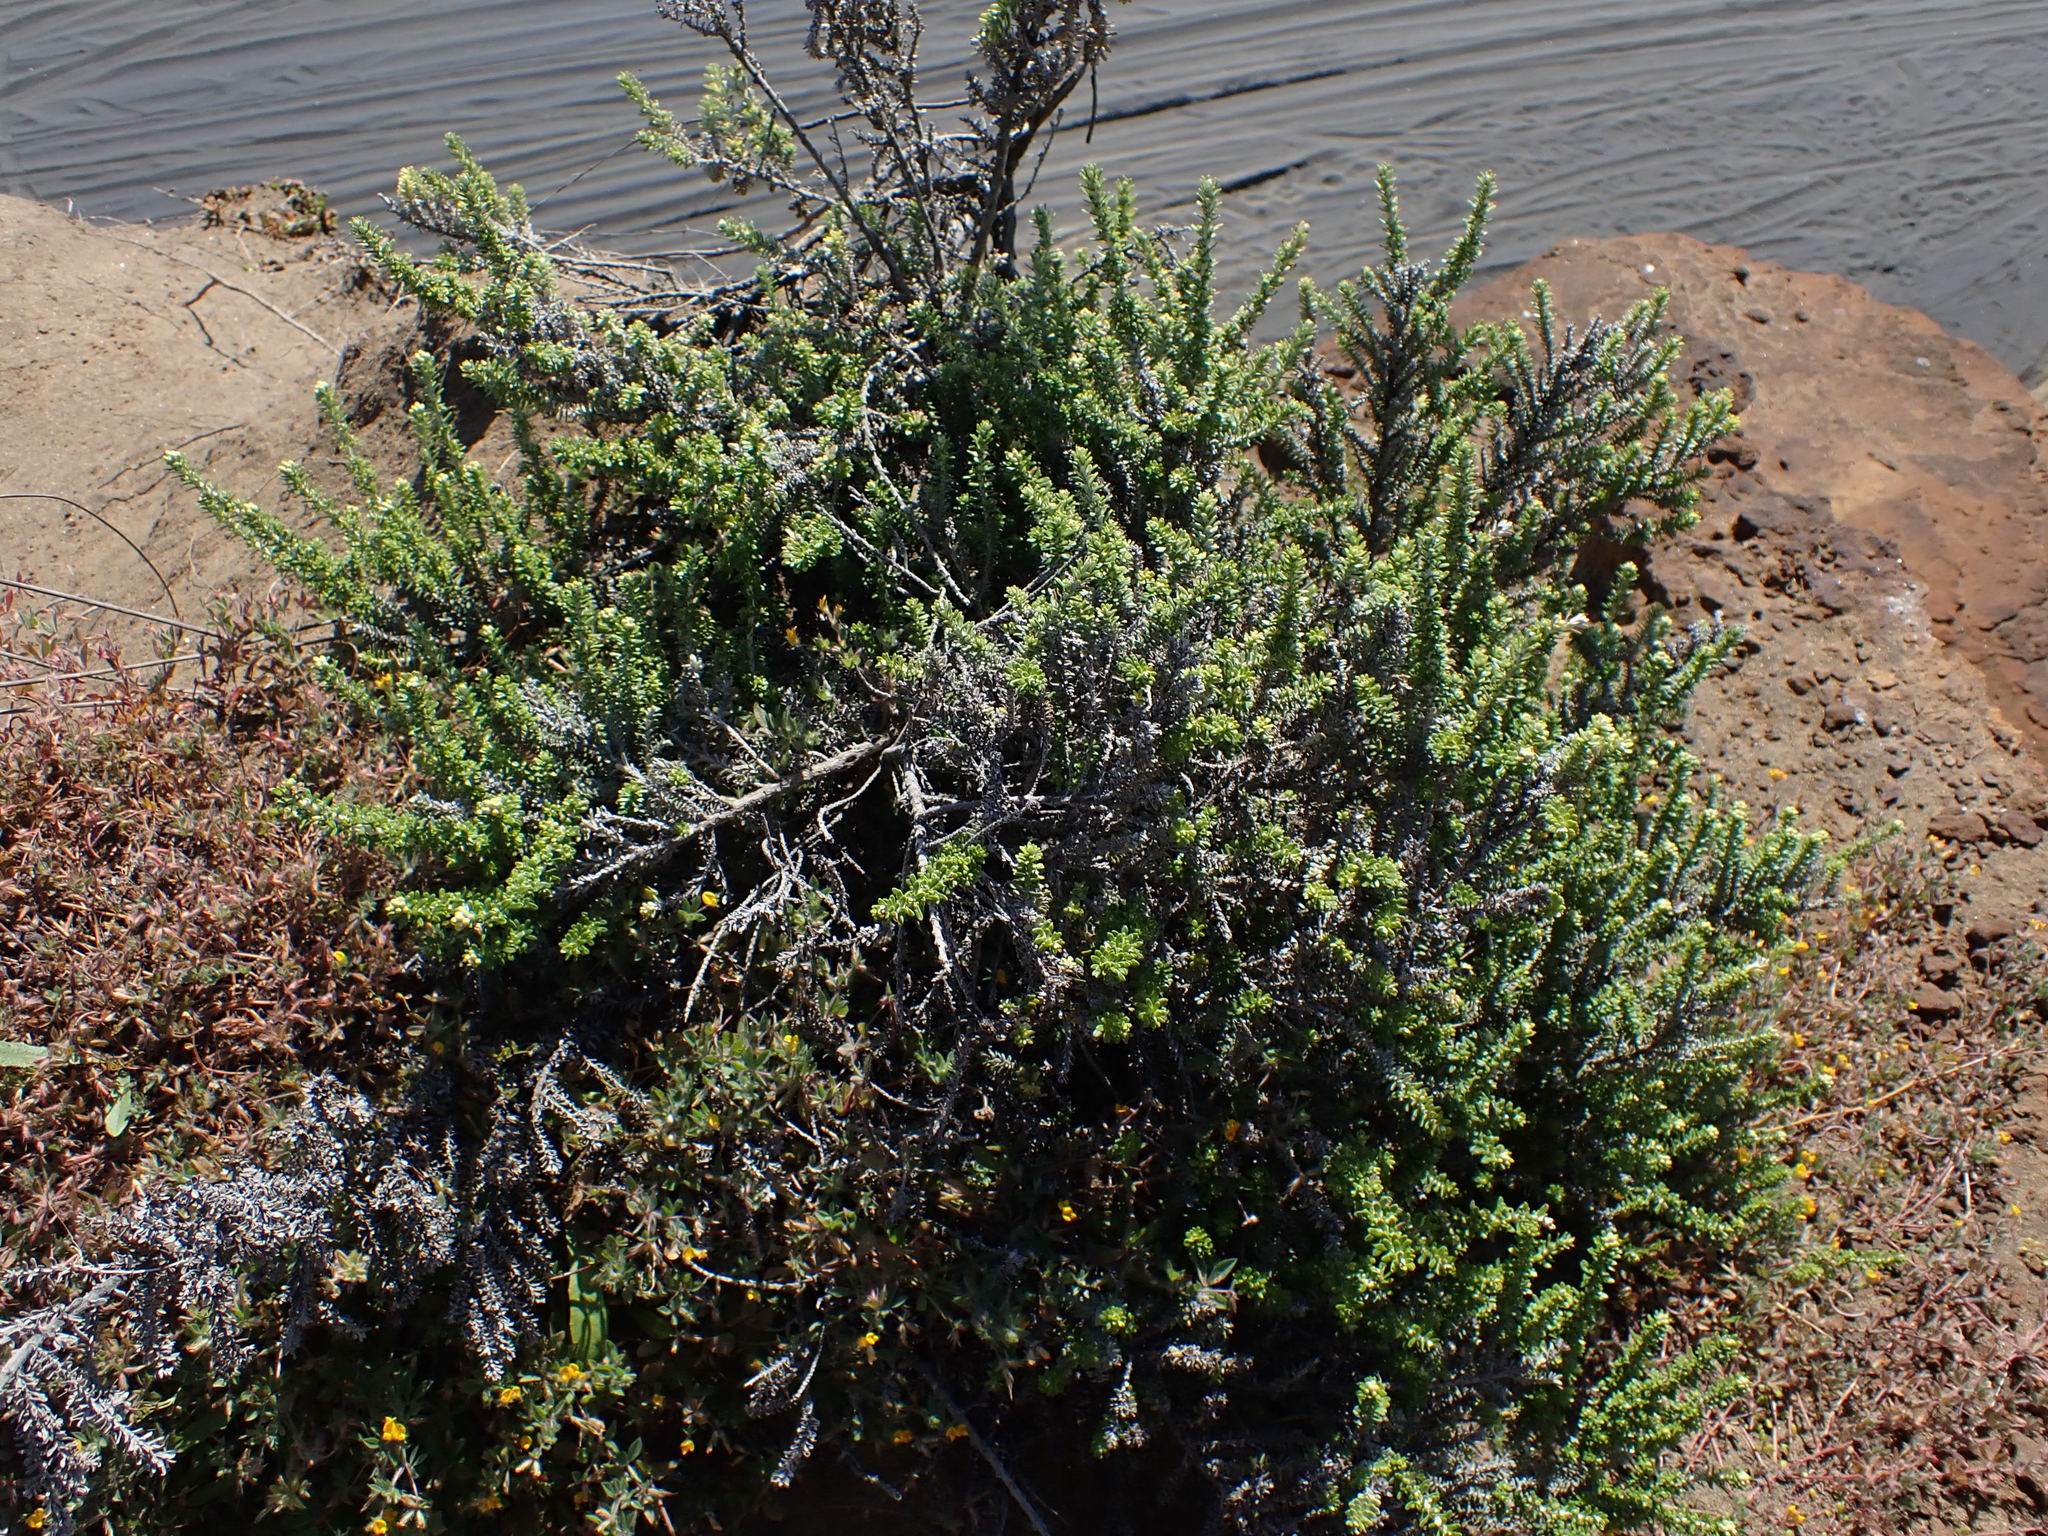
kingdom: Plantae
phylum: Tracheophyta
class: Magnoliopsida
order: Asterales
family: Asteraceae
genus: Ozothamnus
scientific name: Ozothamnus leptophyllus
